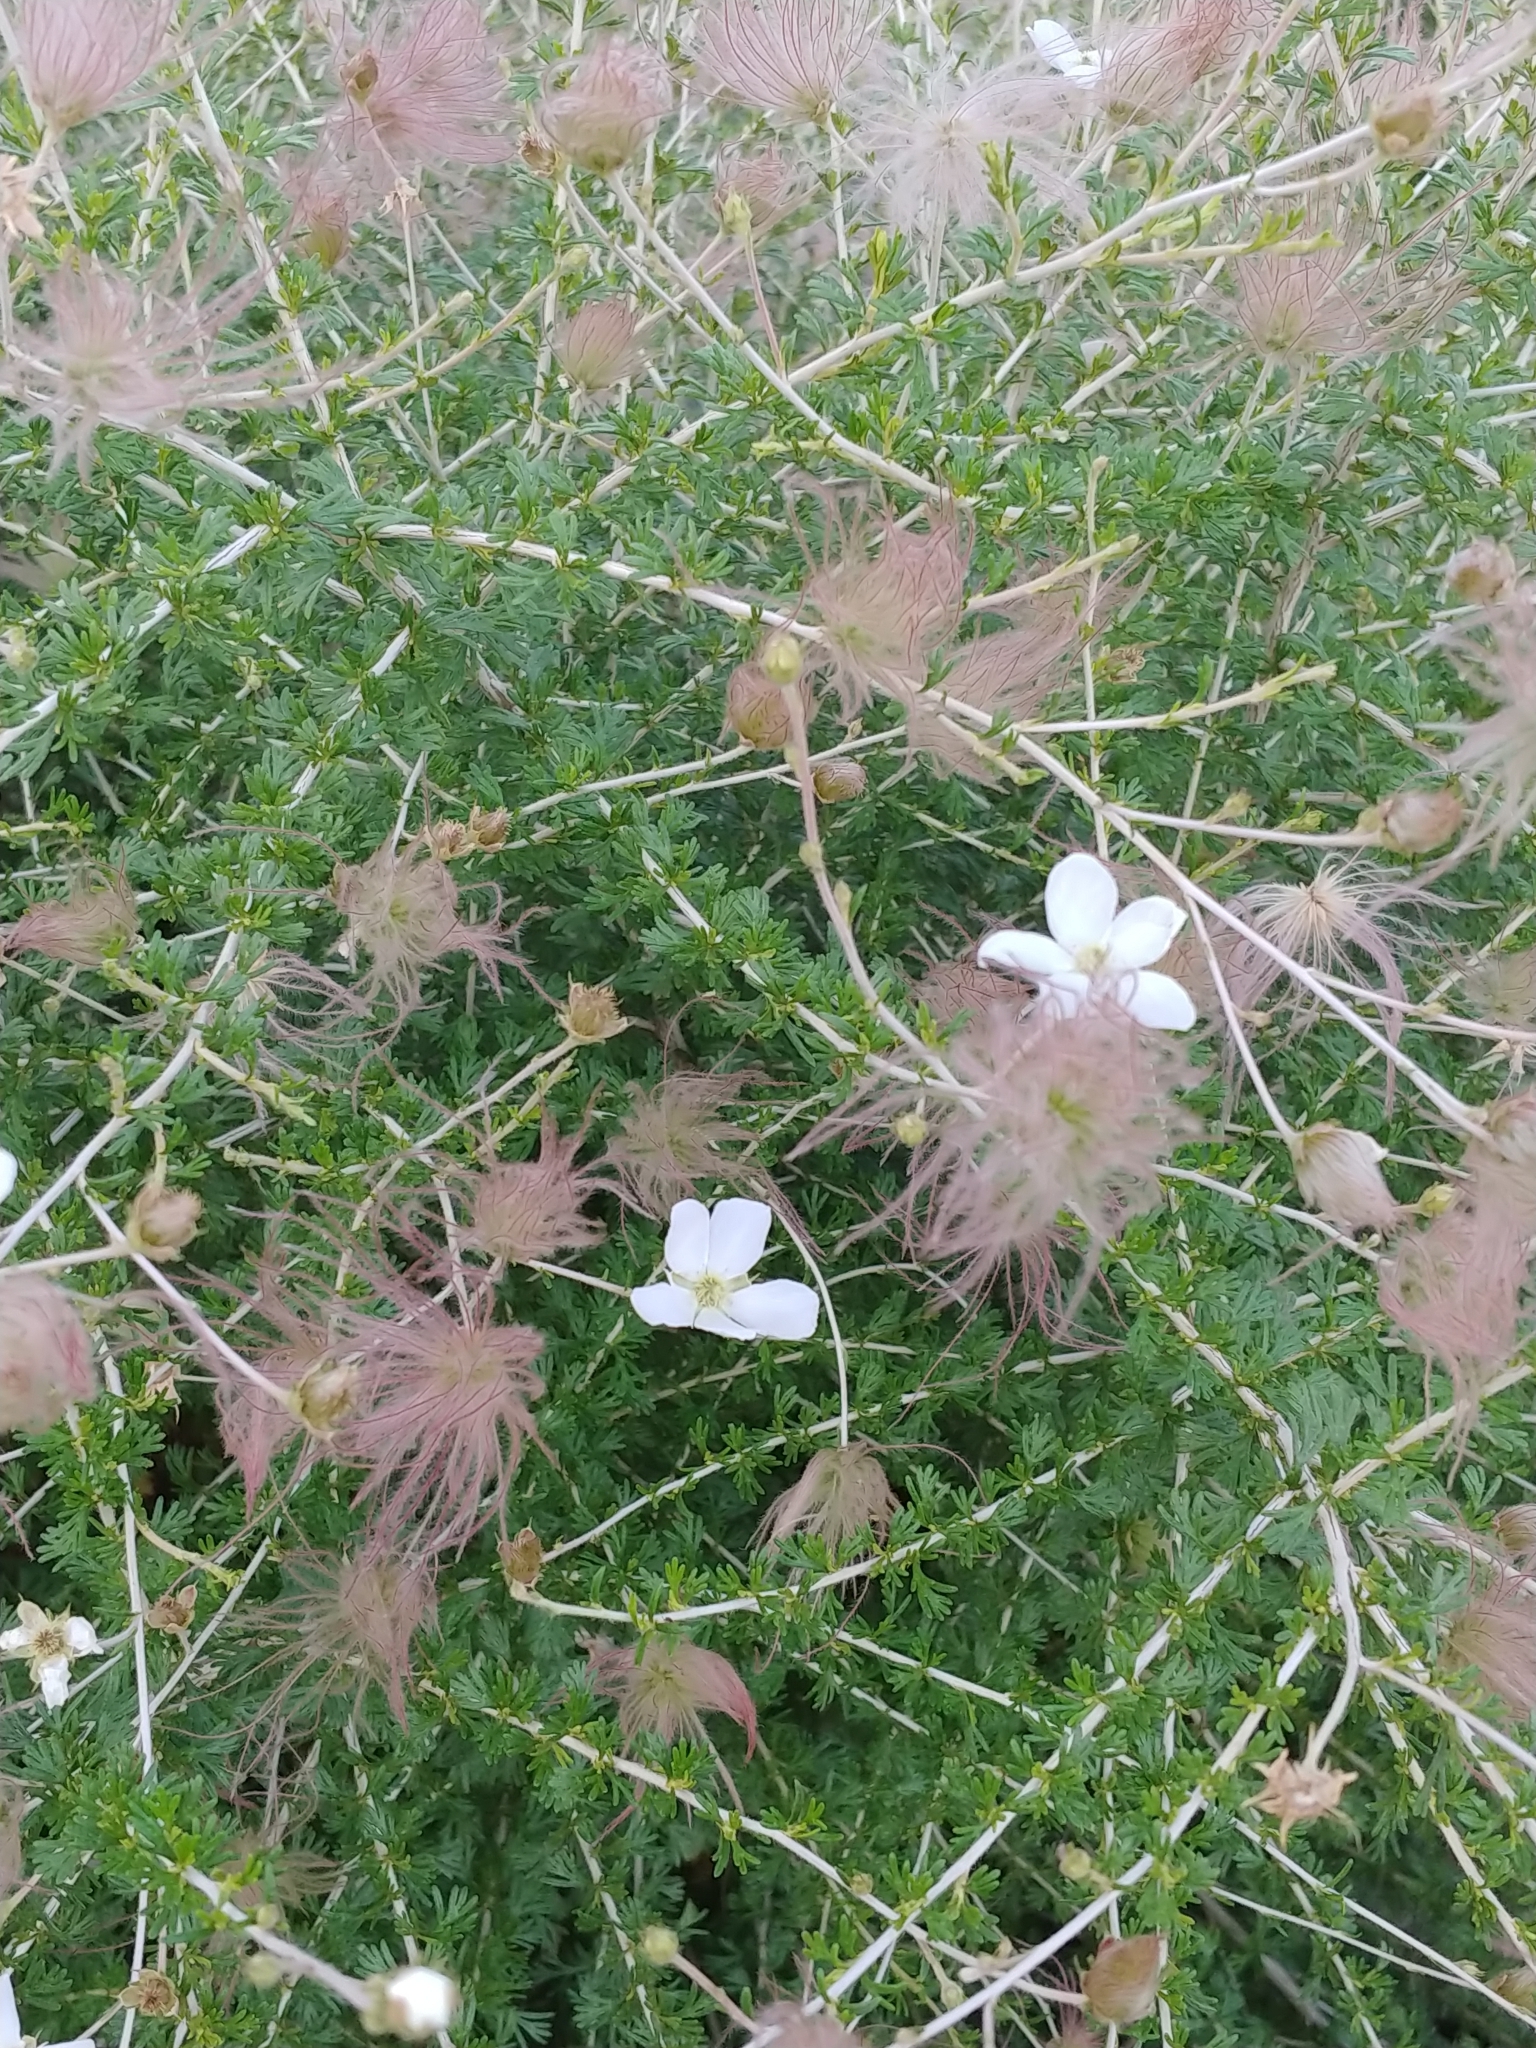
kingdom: Plantae
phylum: Tracheophyta
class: Magnoliopsida
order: Rosales
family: Rosaceae
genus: Fallugia
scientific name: Fallugia paradoxa
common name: Apache-plume
